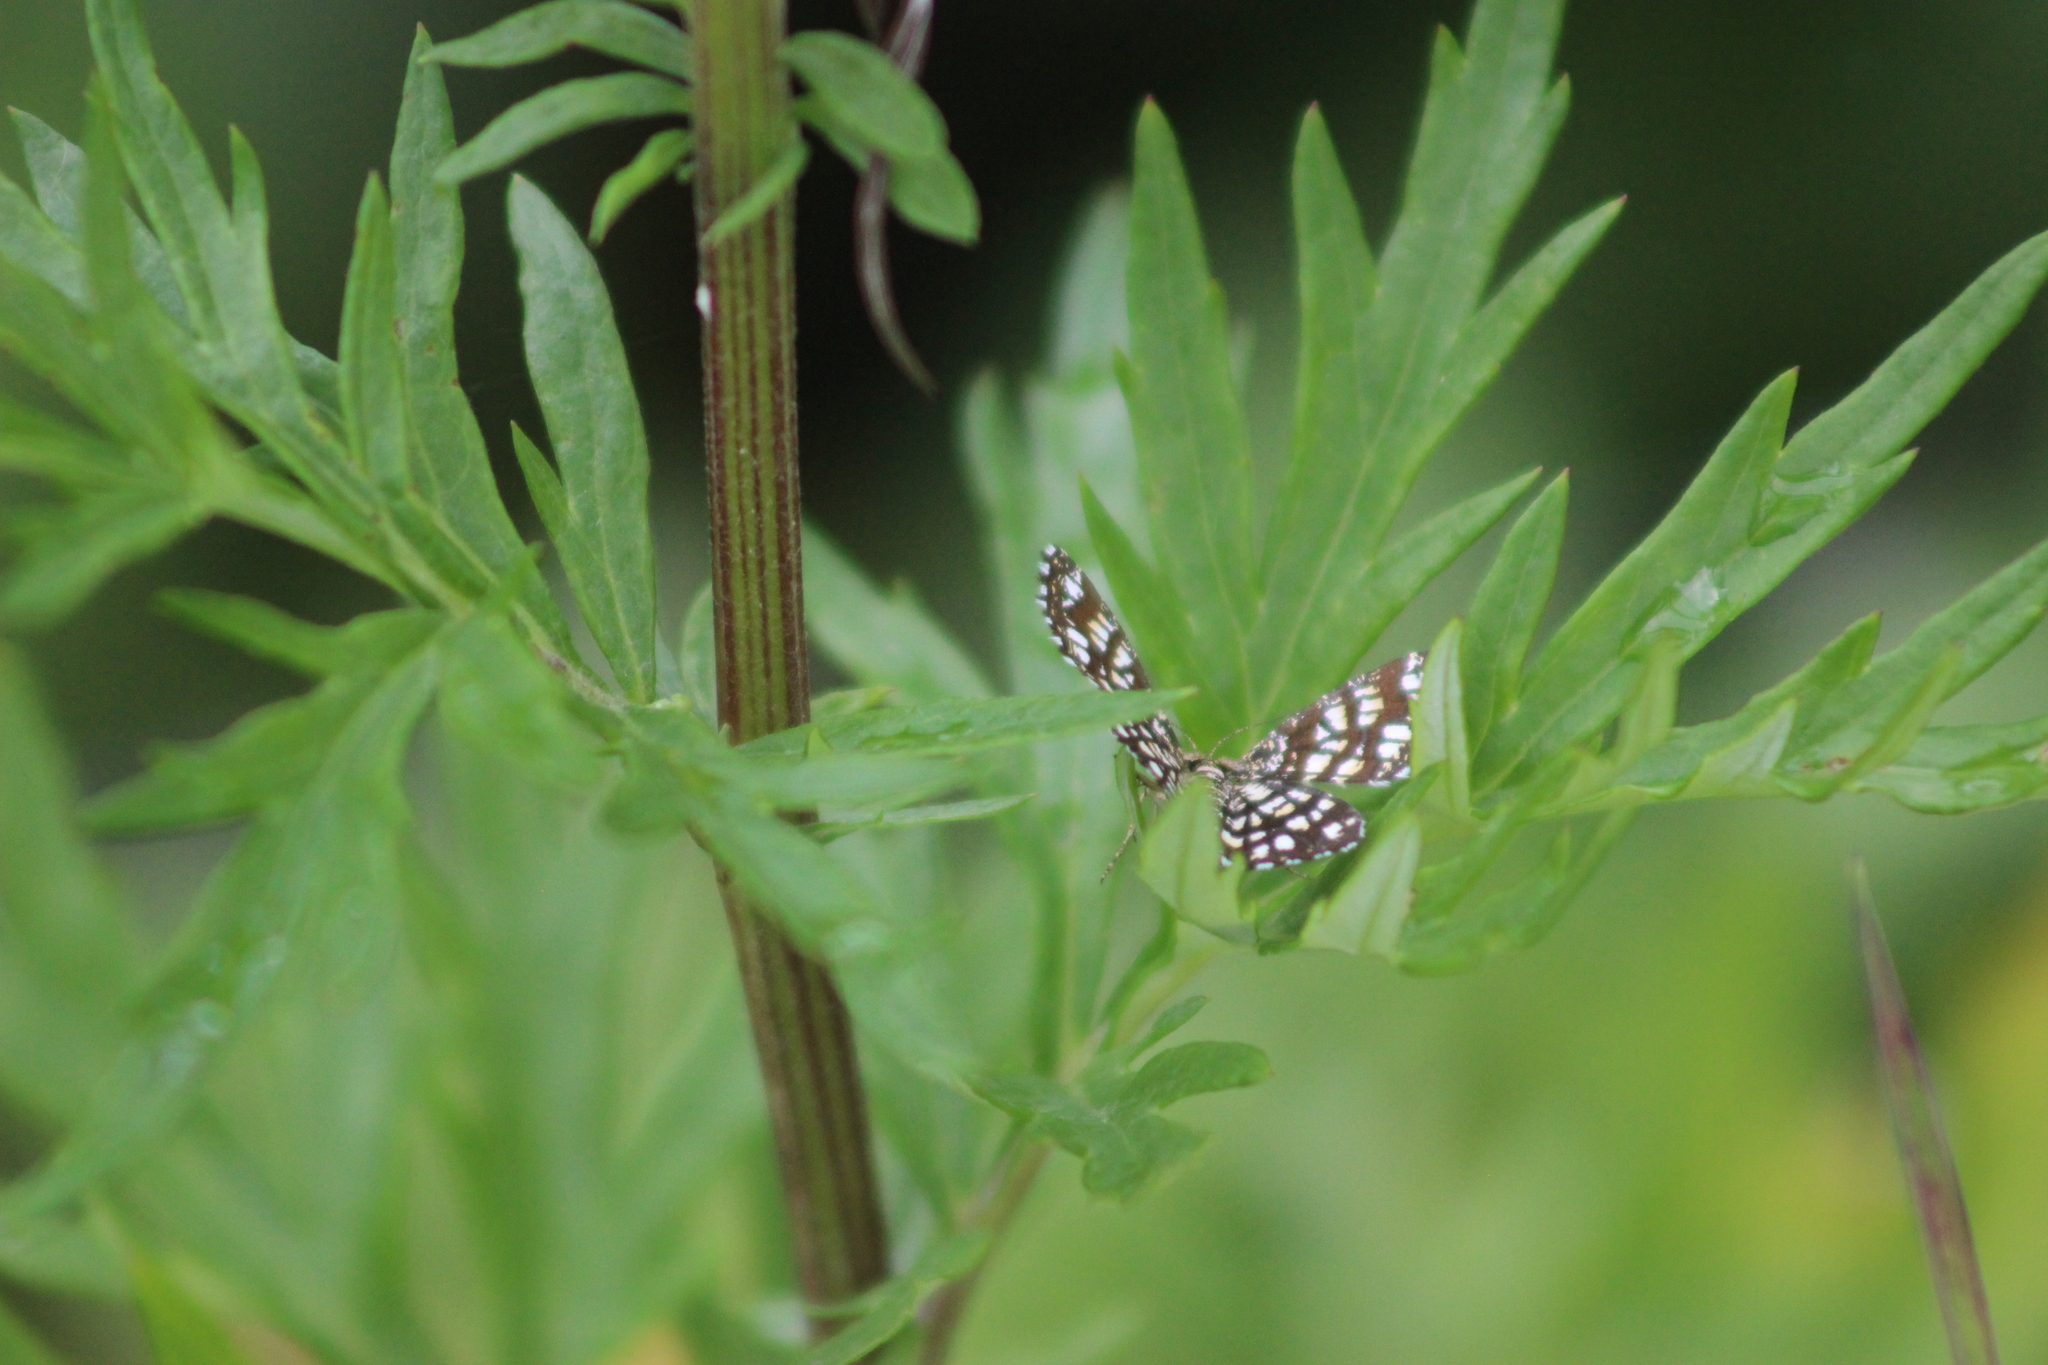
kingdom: Animalia
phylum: Arthropoda
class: Insecta
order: Lepidoptera
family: Geometridae
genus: Chiasmia
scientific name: Chiasmia clathrata
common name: Latticed heath
